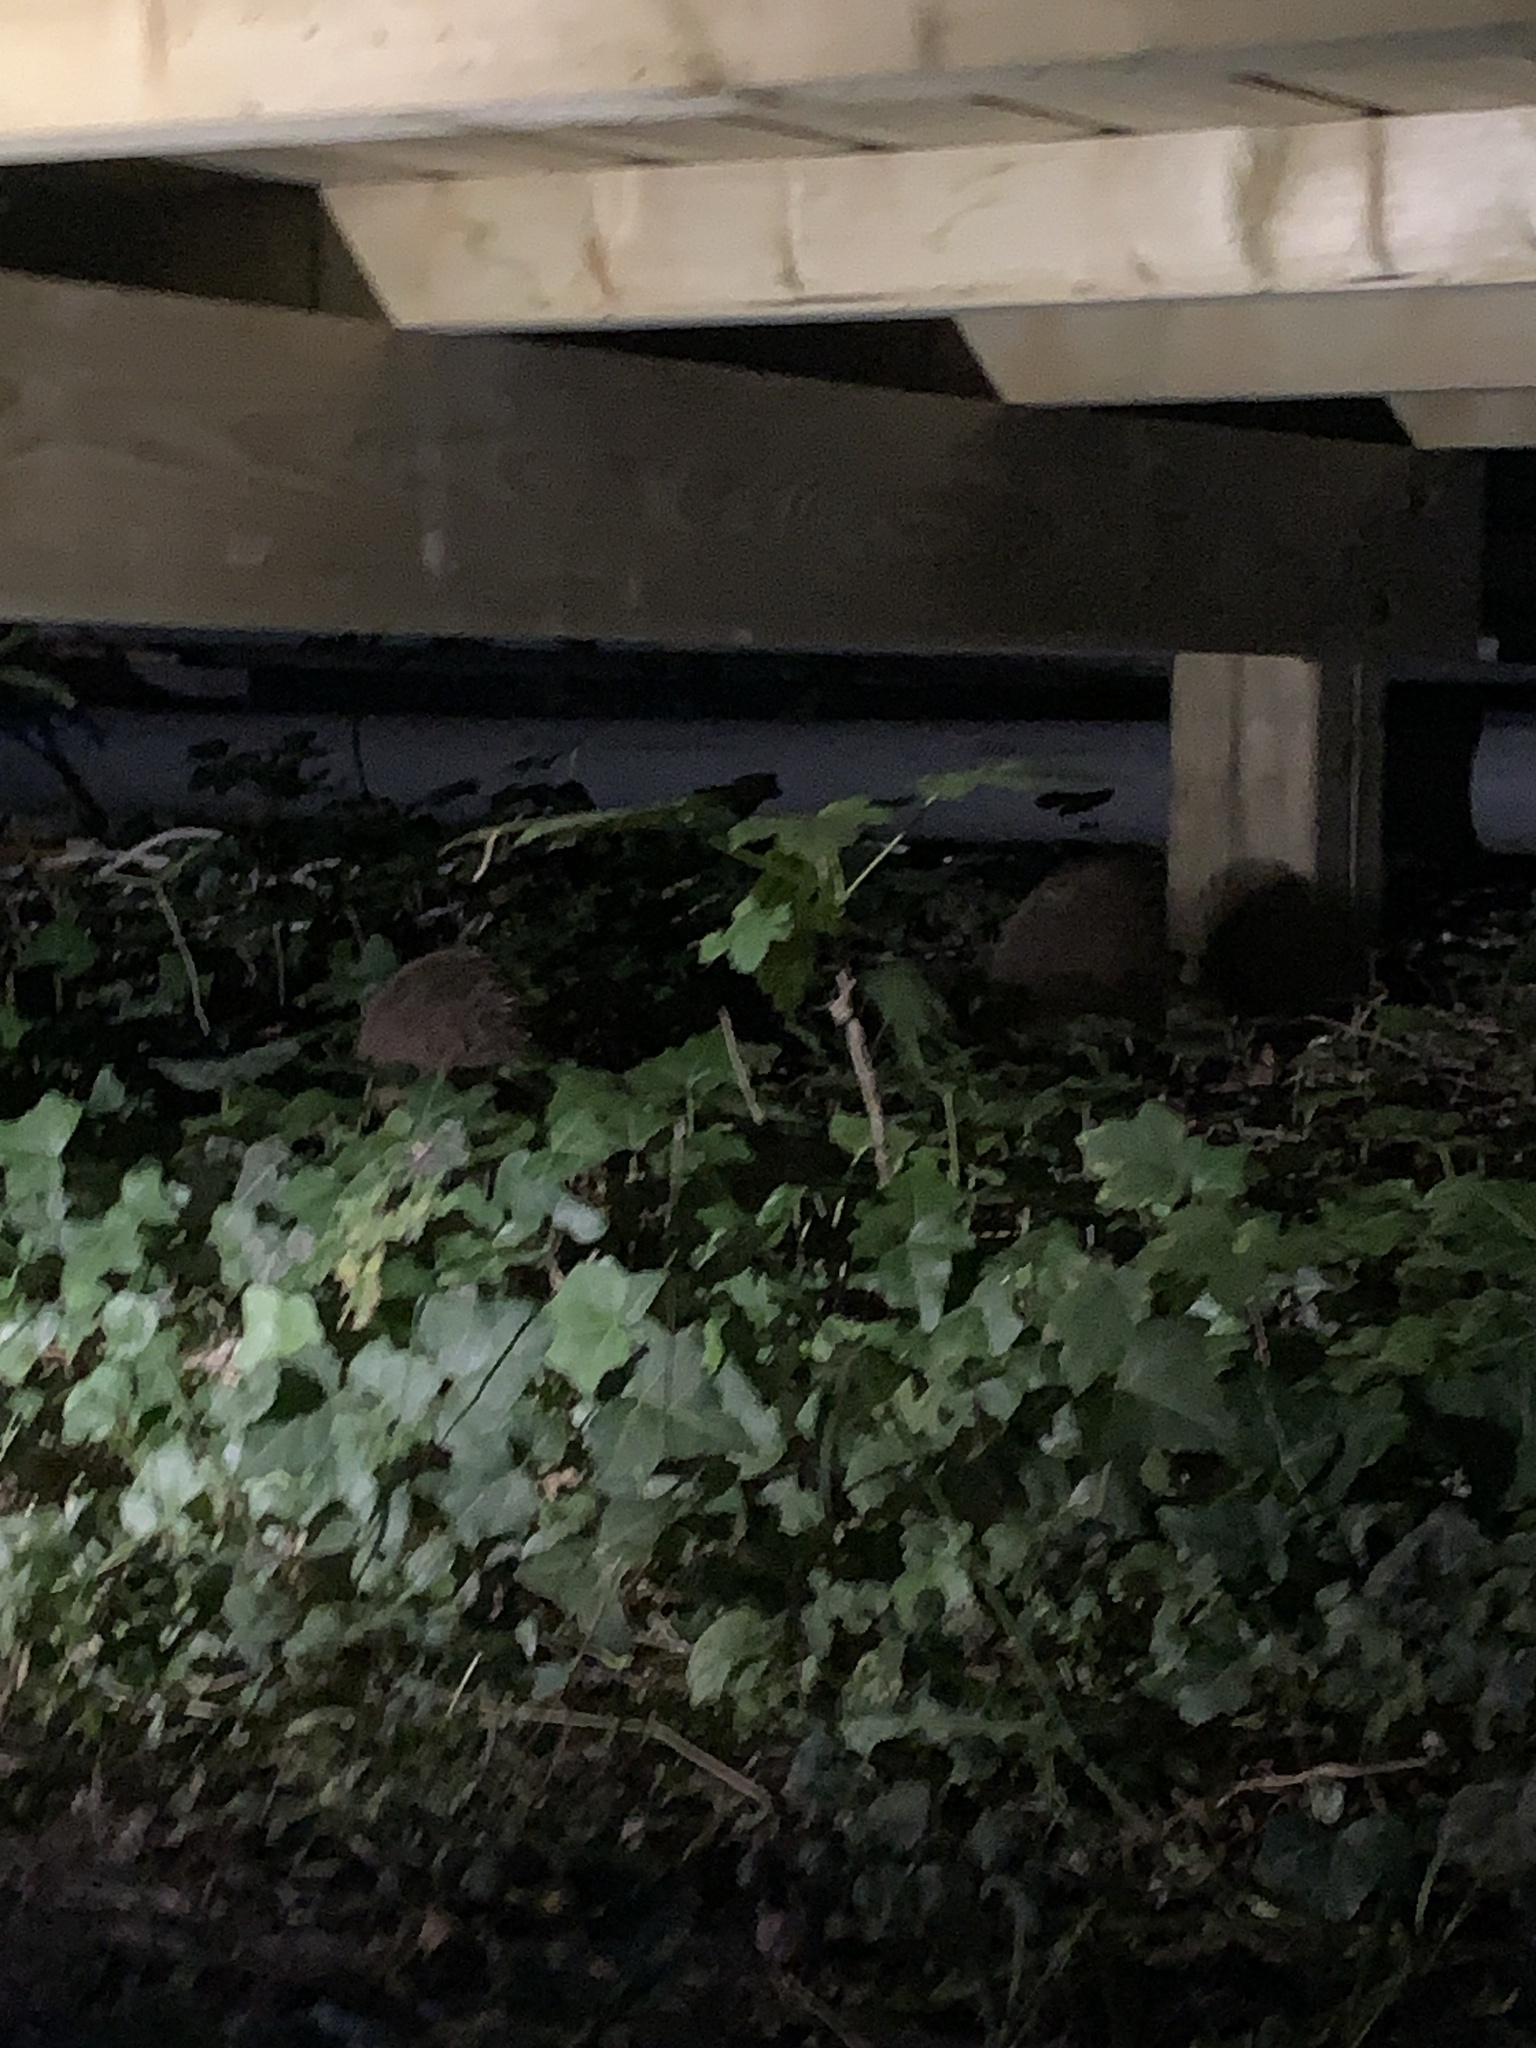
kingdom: Animalia
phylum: Chordata
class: Mammalia
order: Erinaceomorpha
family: Erinaceidae
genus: Erinaceus
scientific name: Erinaceus europaeus
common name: West european hedgehog
